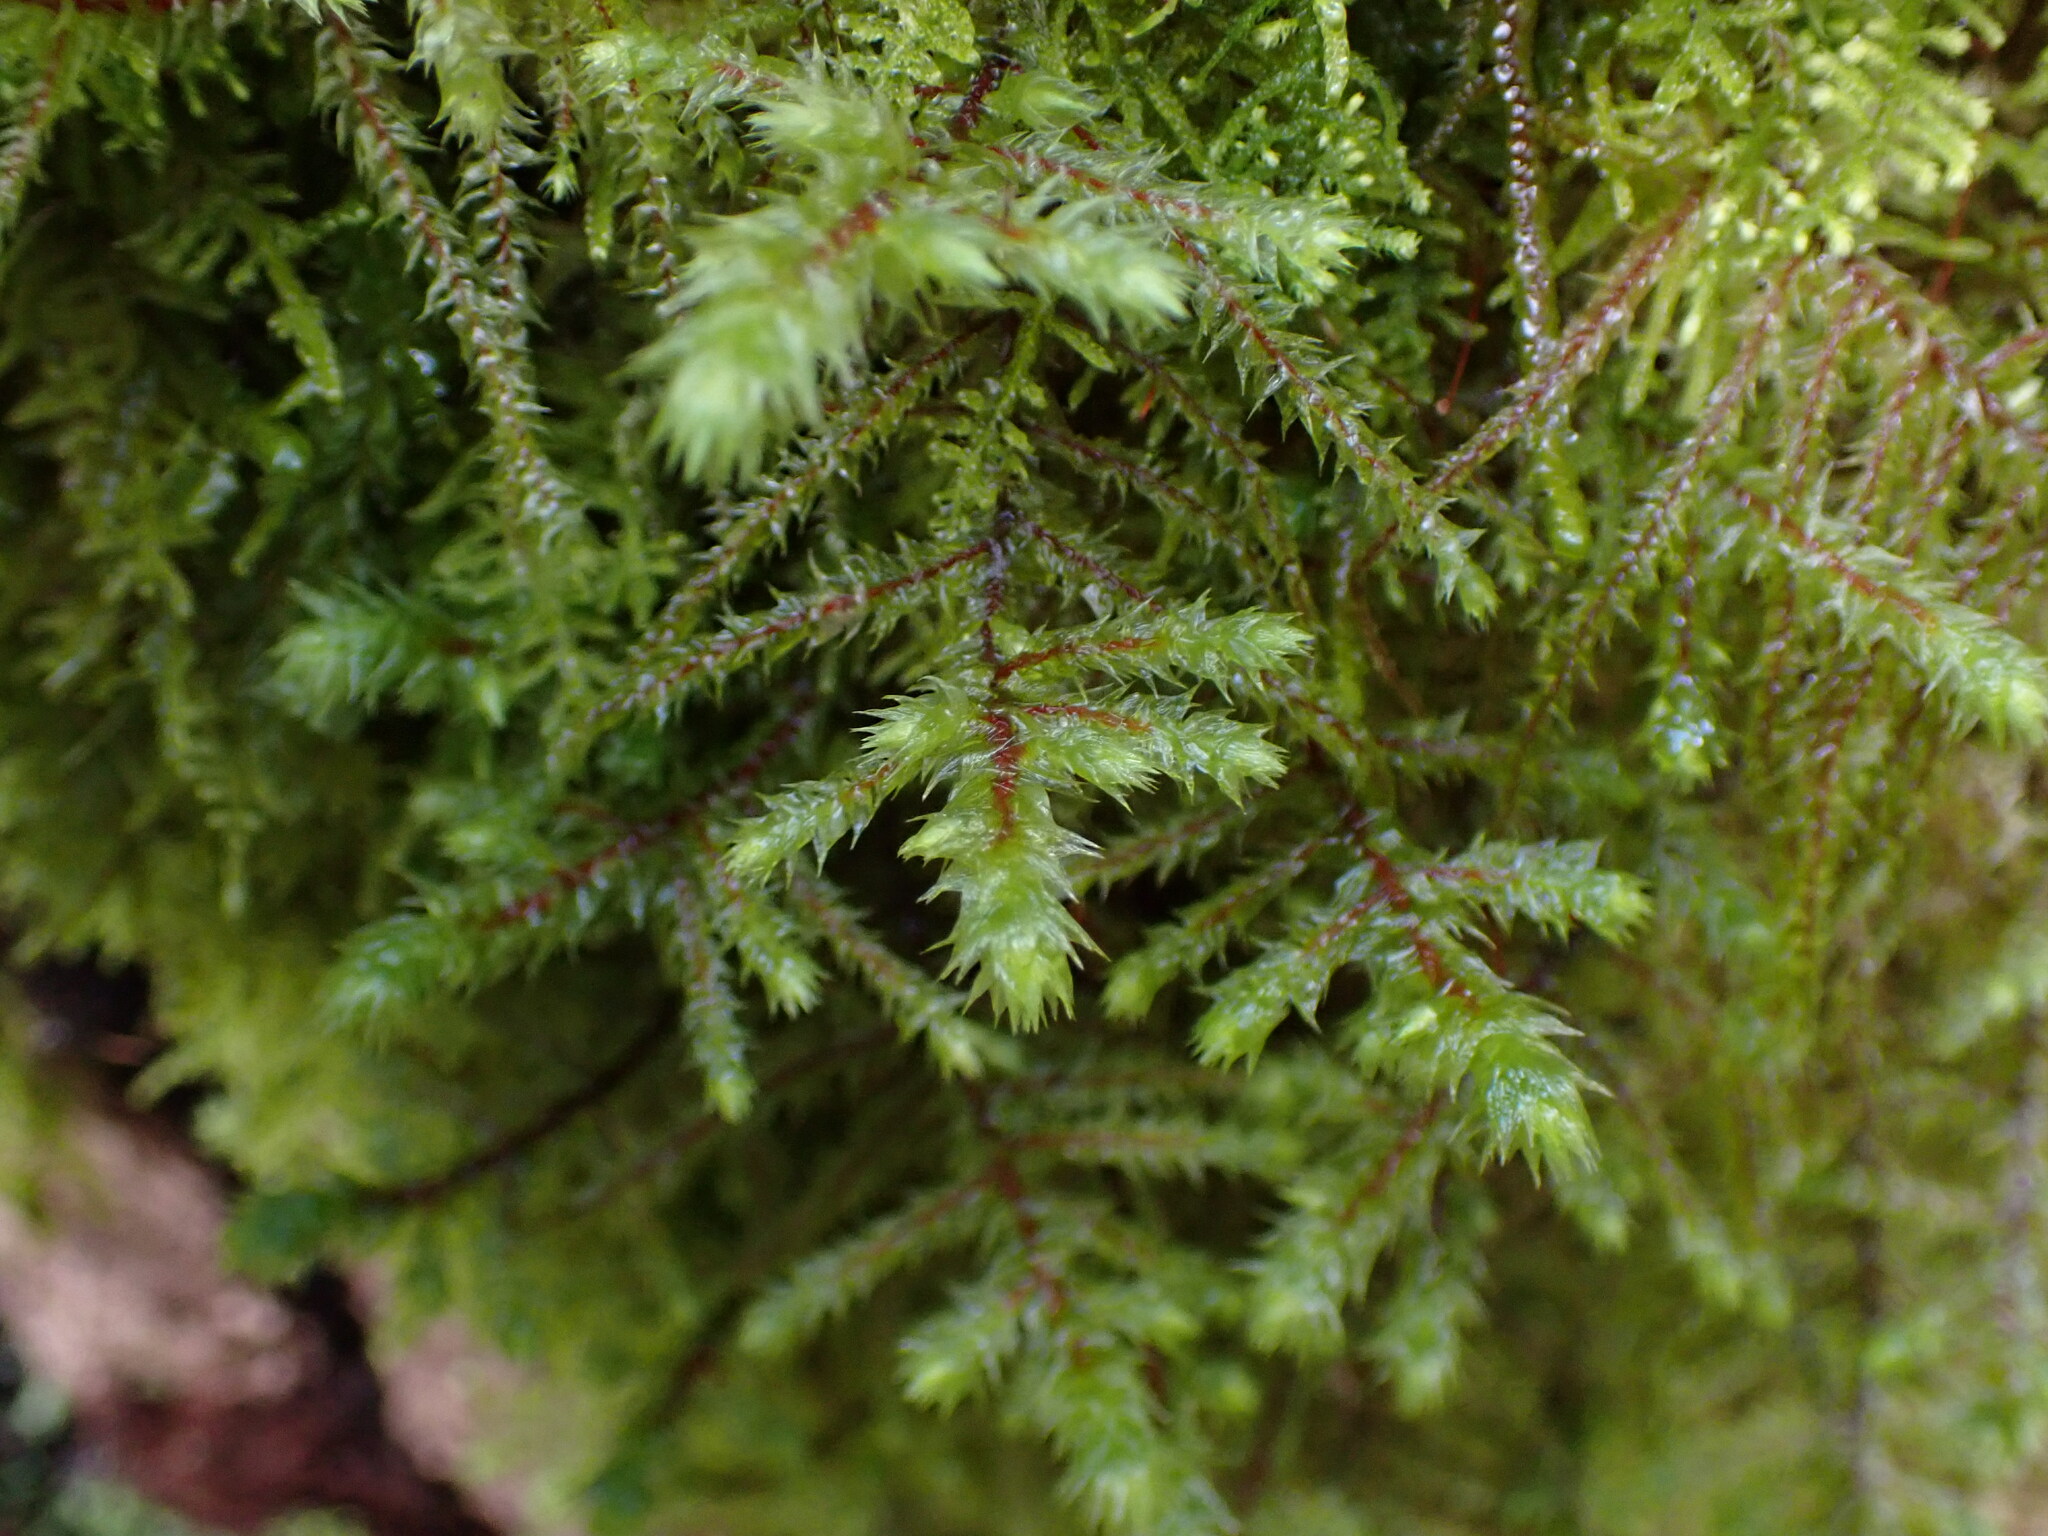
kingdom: Plantae
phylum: Bryophyta
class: Bryopsida
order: Hypnales
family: Hylocomiaceae
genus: Hylocomiadelphus
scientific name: Hylocomiadelphus triquetrus
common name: Rough goose neck moss
